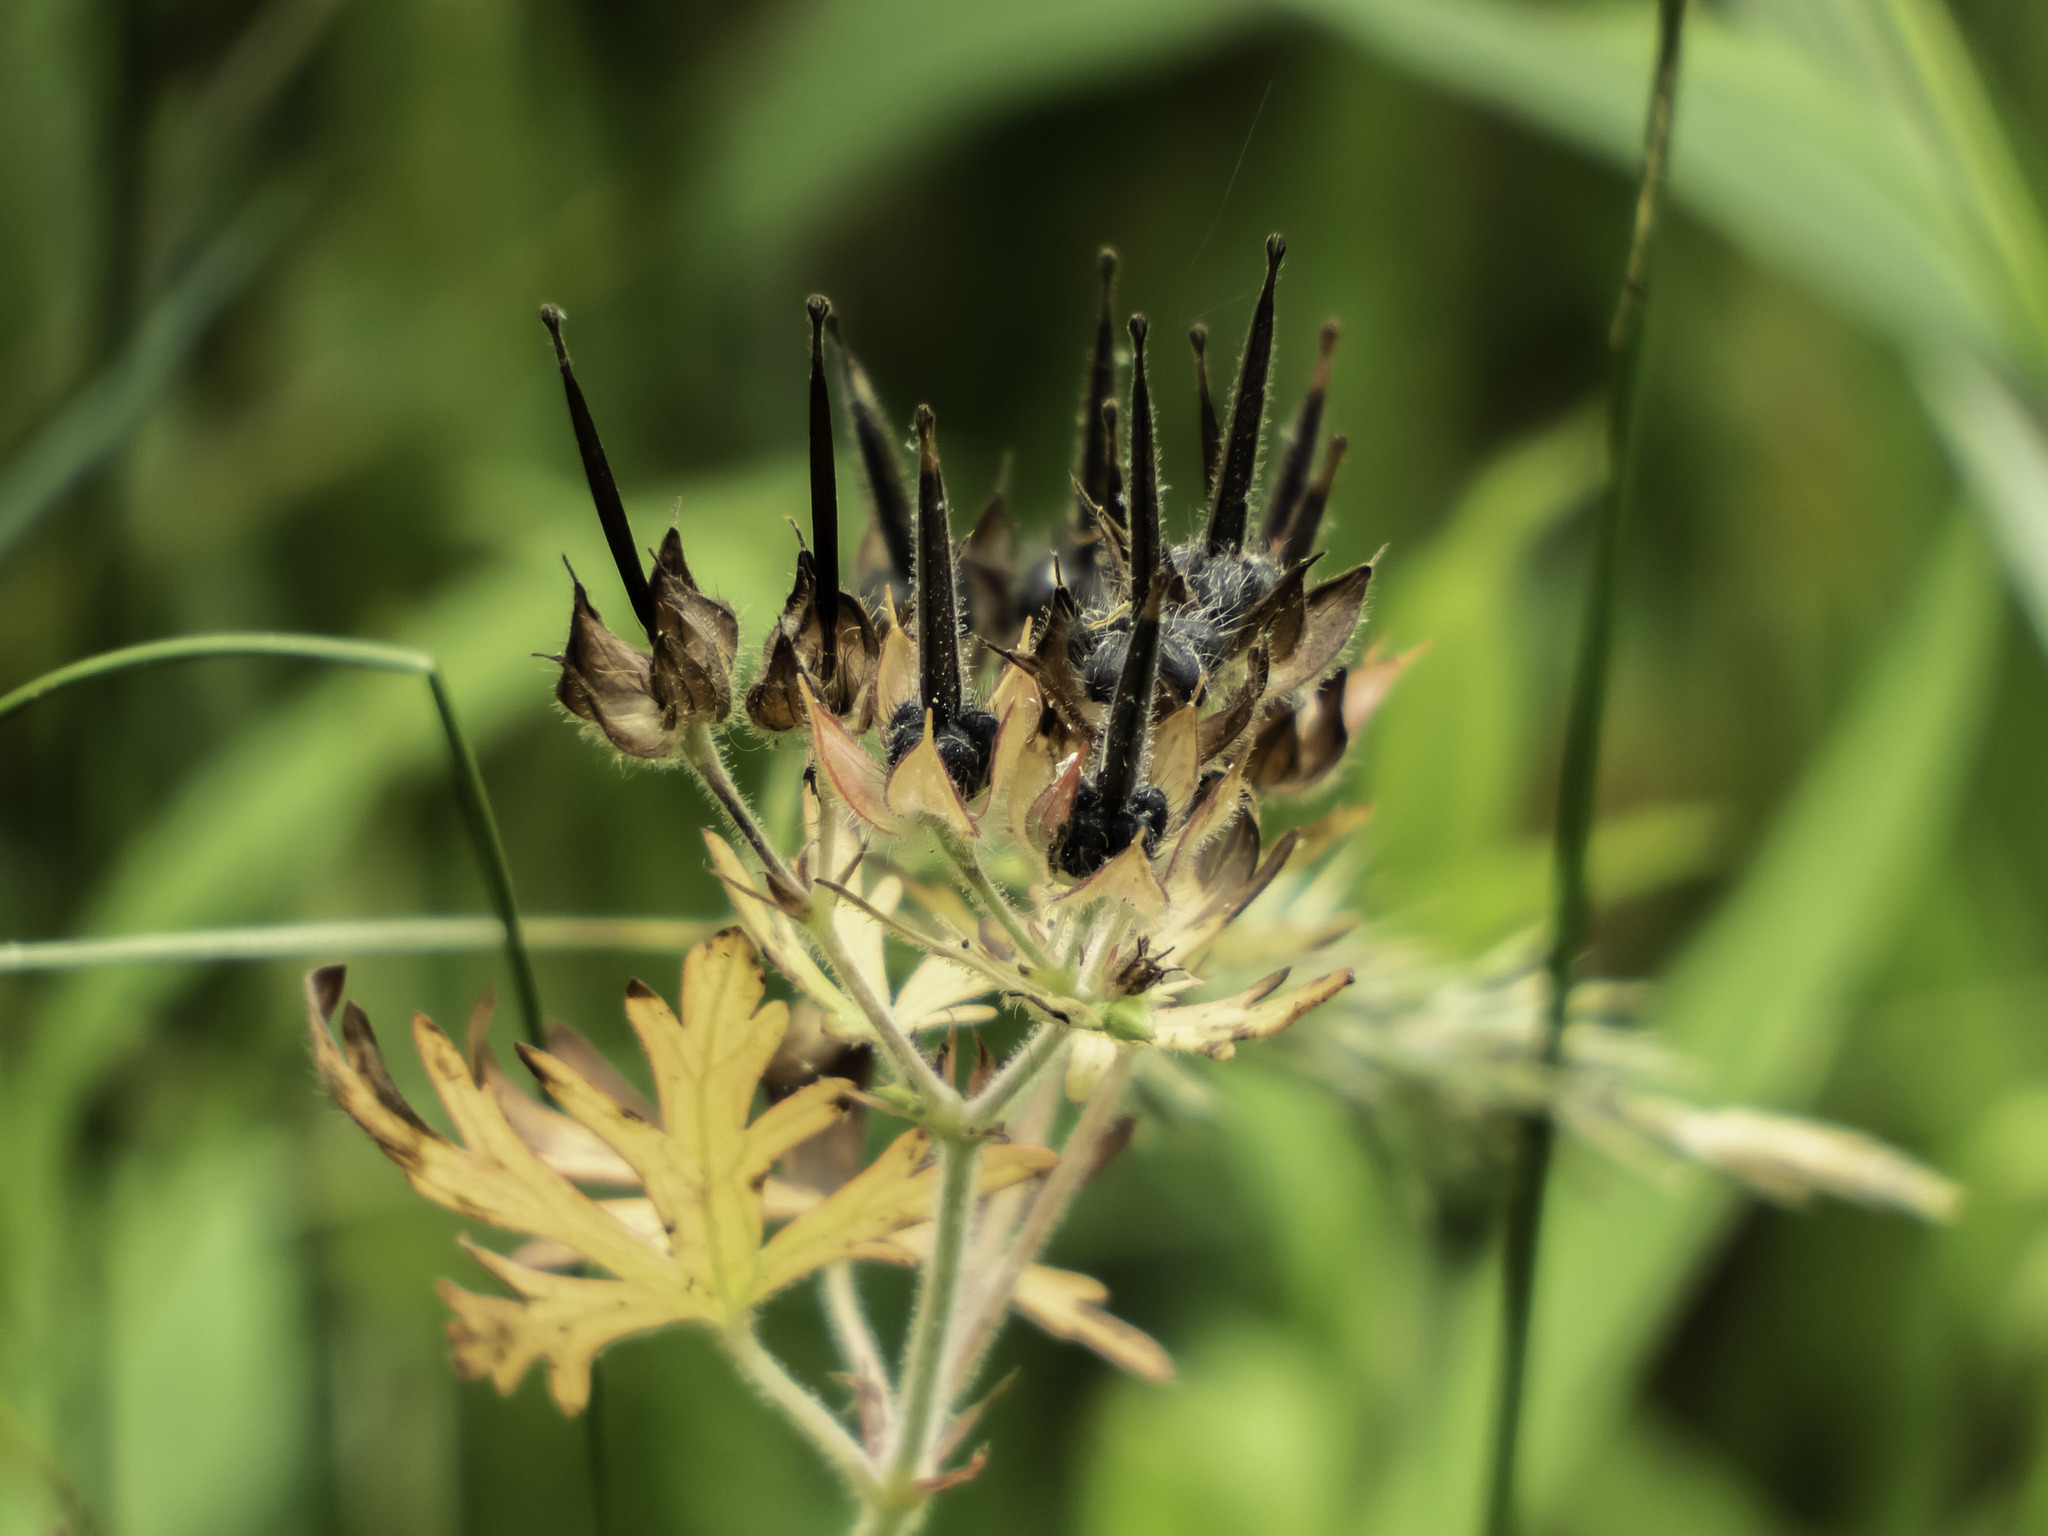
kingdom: Plantae
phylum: Tracheophyta
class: Magnoliopsida
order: Geraniales
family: Geraniaceae
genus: Geranium
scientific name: Geranium carolinianum
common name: Carolina crane's-bill
